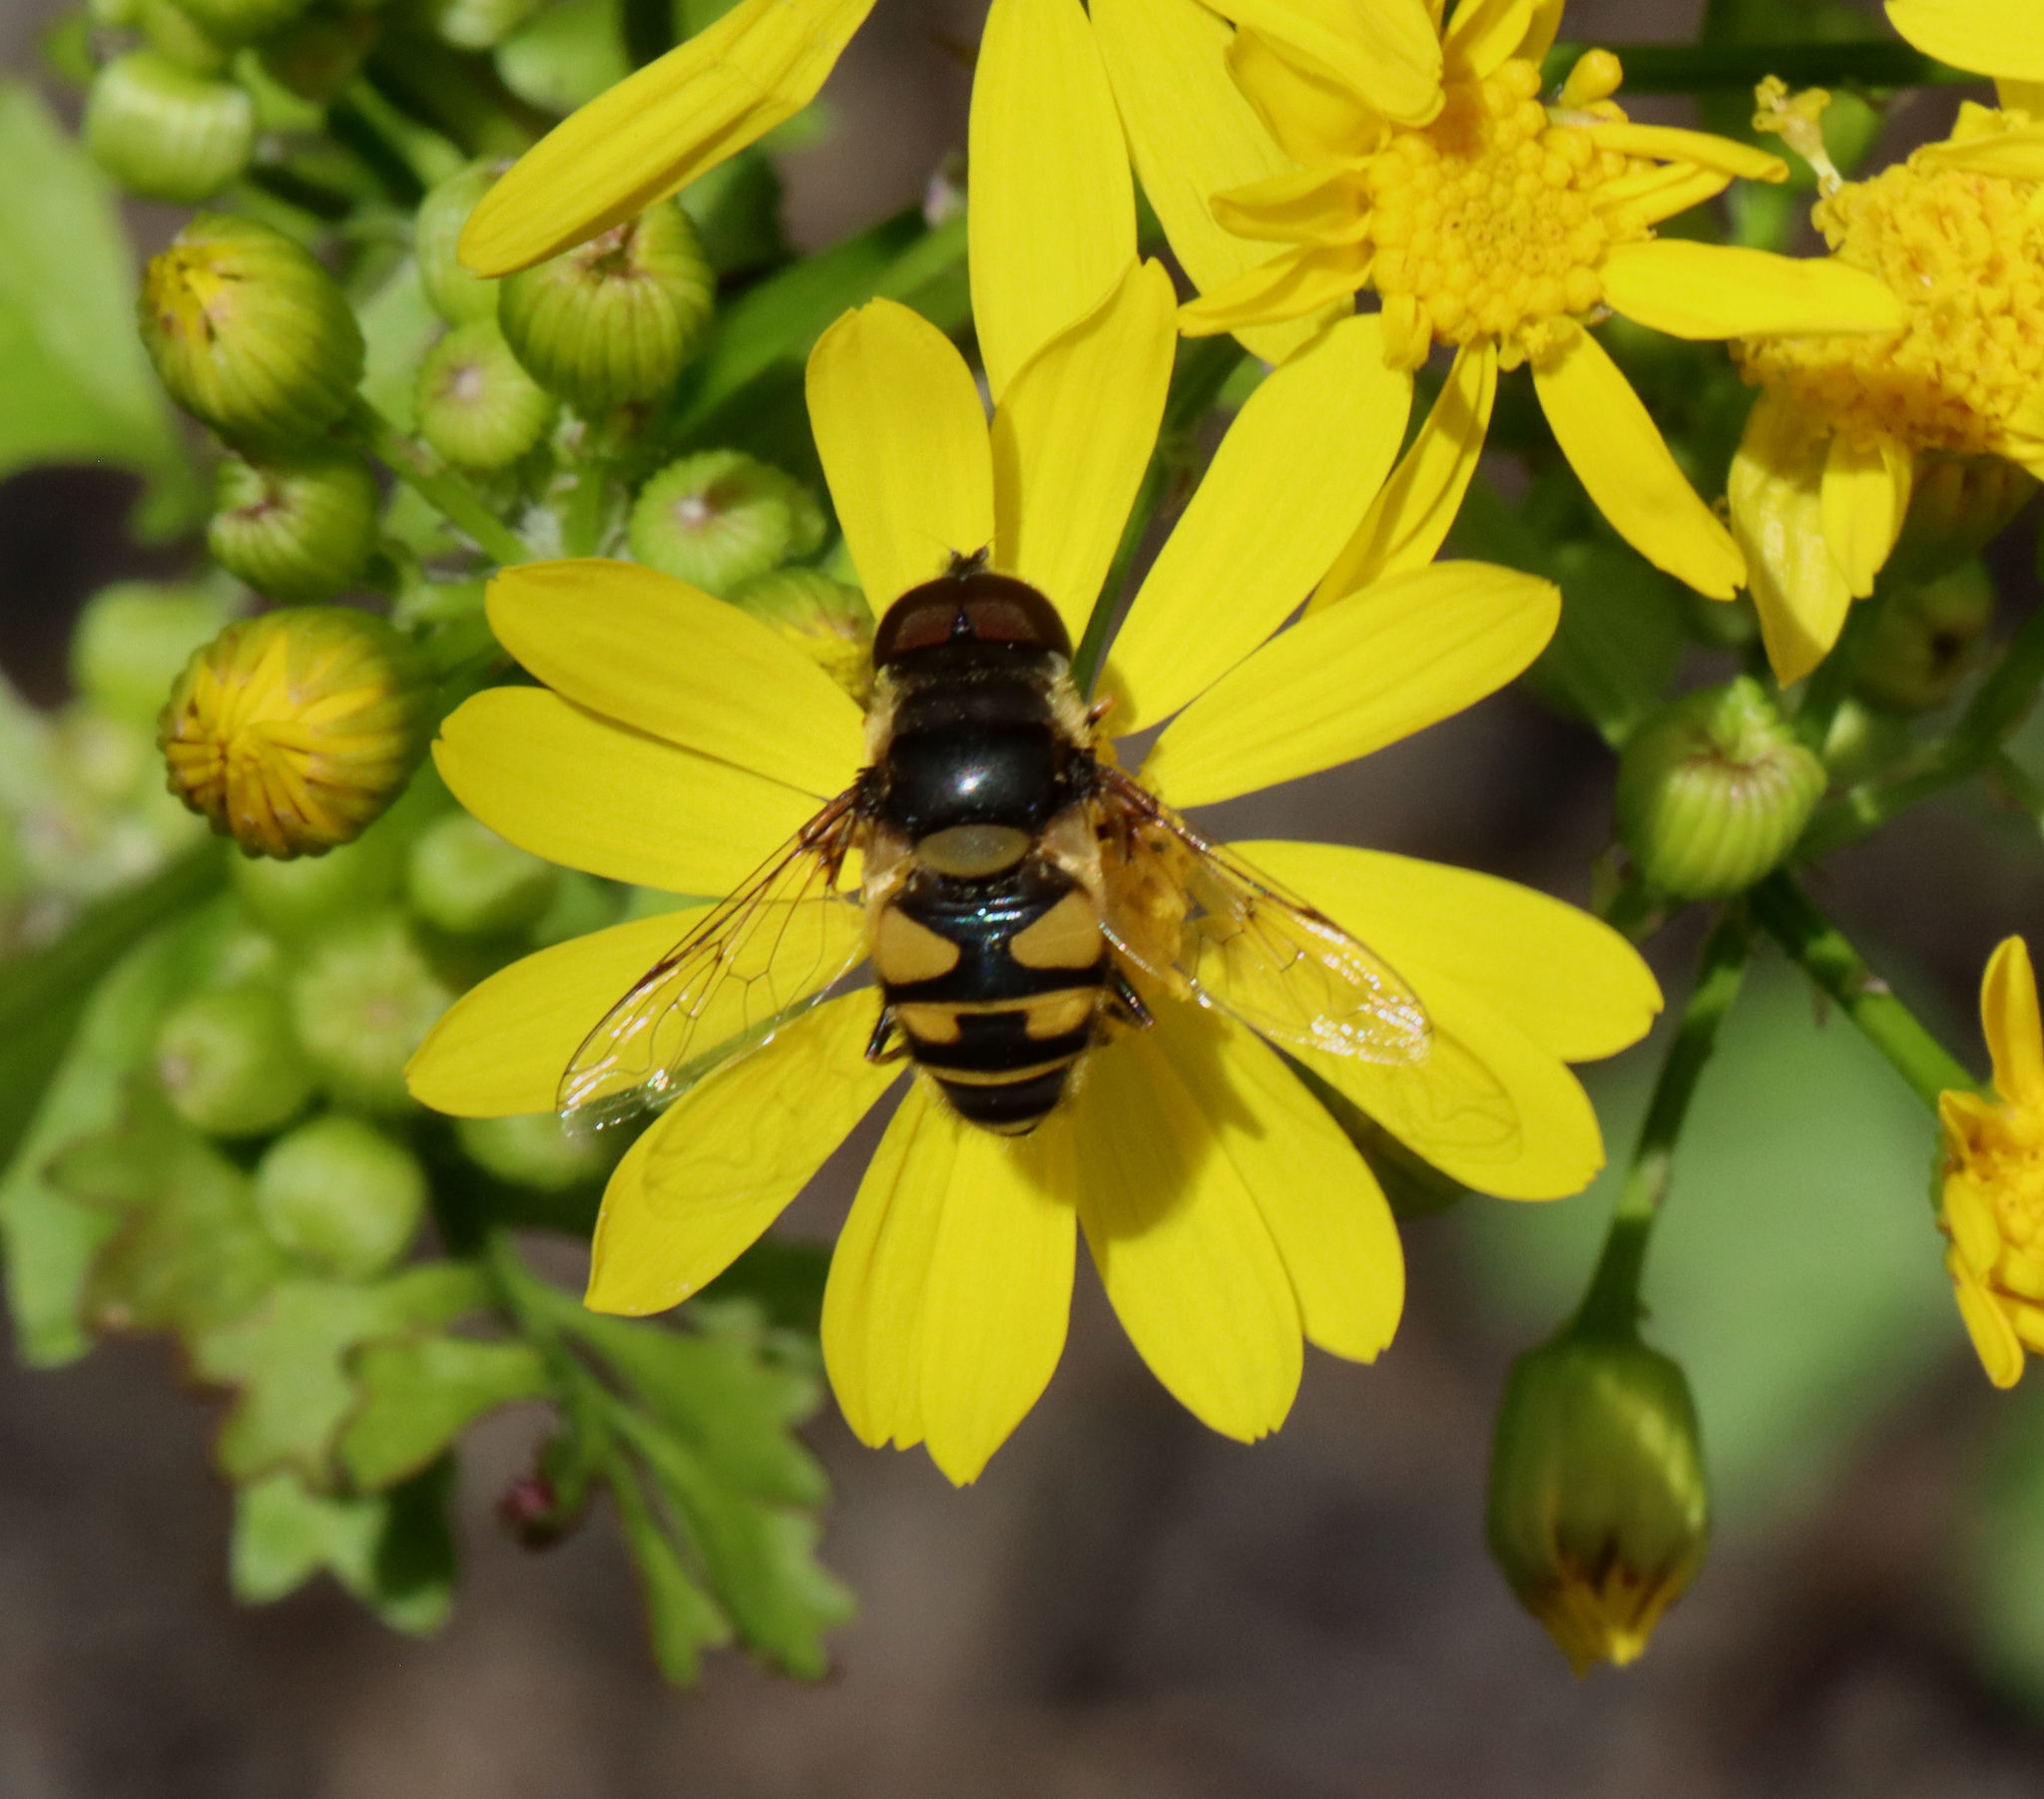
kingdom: Animalia
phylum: Arthropoda
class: Insecta
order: Diptera
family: Syrphidae
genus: Eristalis
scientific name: Eristalis transversa
